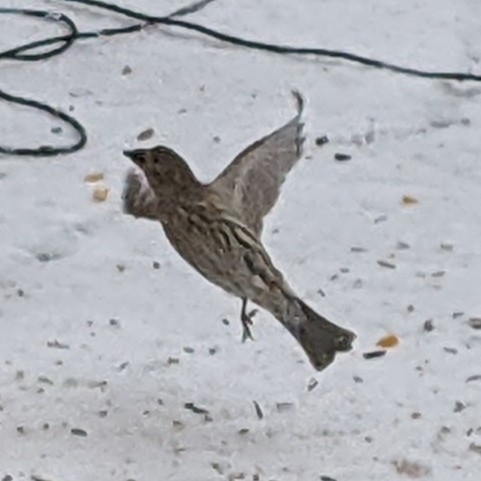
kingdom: Animalia
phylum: Chordata
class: Aves
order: Passeriformes
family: Fringillidae
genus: Haemorhous
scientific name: Haemorhous mexicanus
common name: House finch
